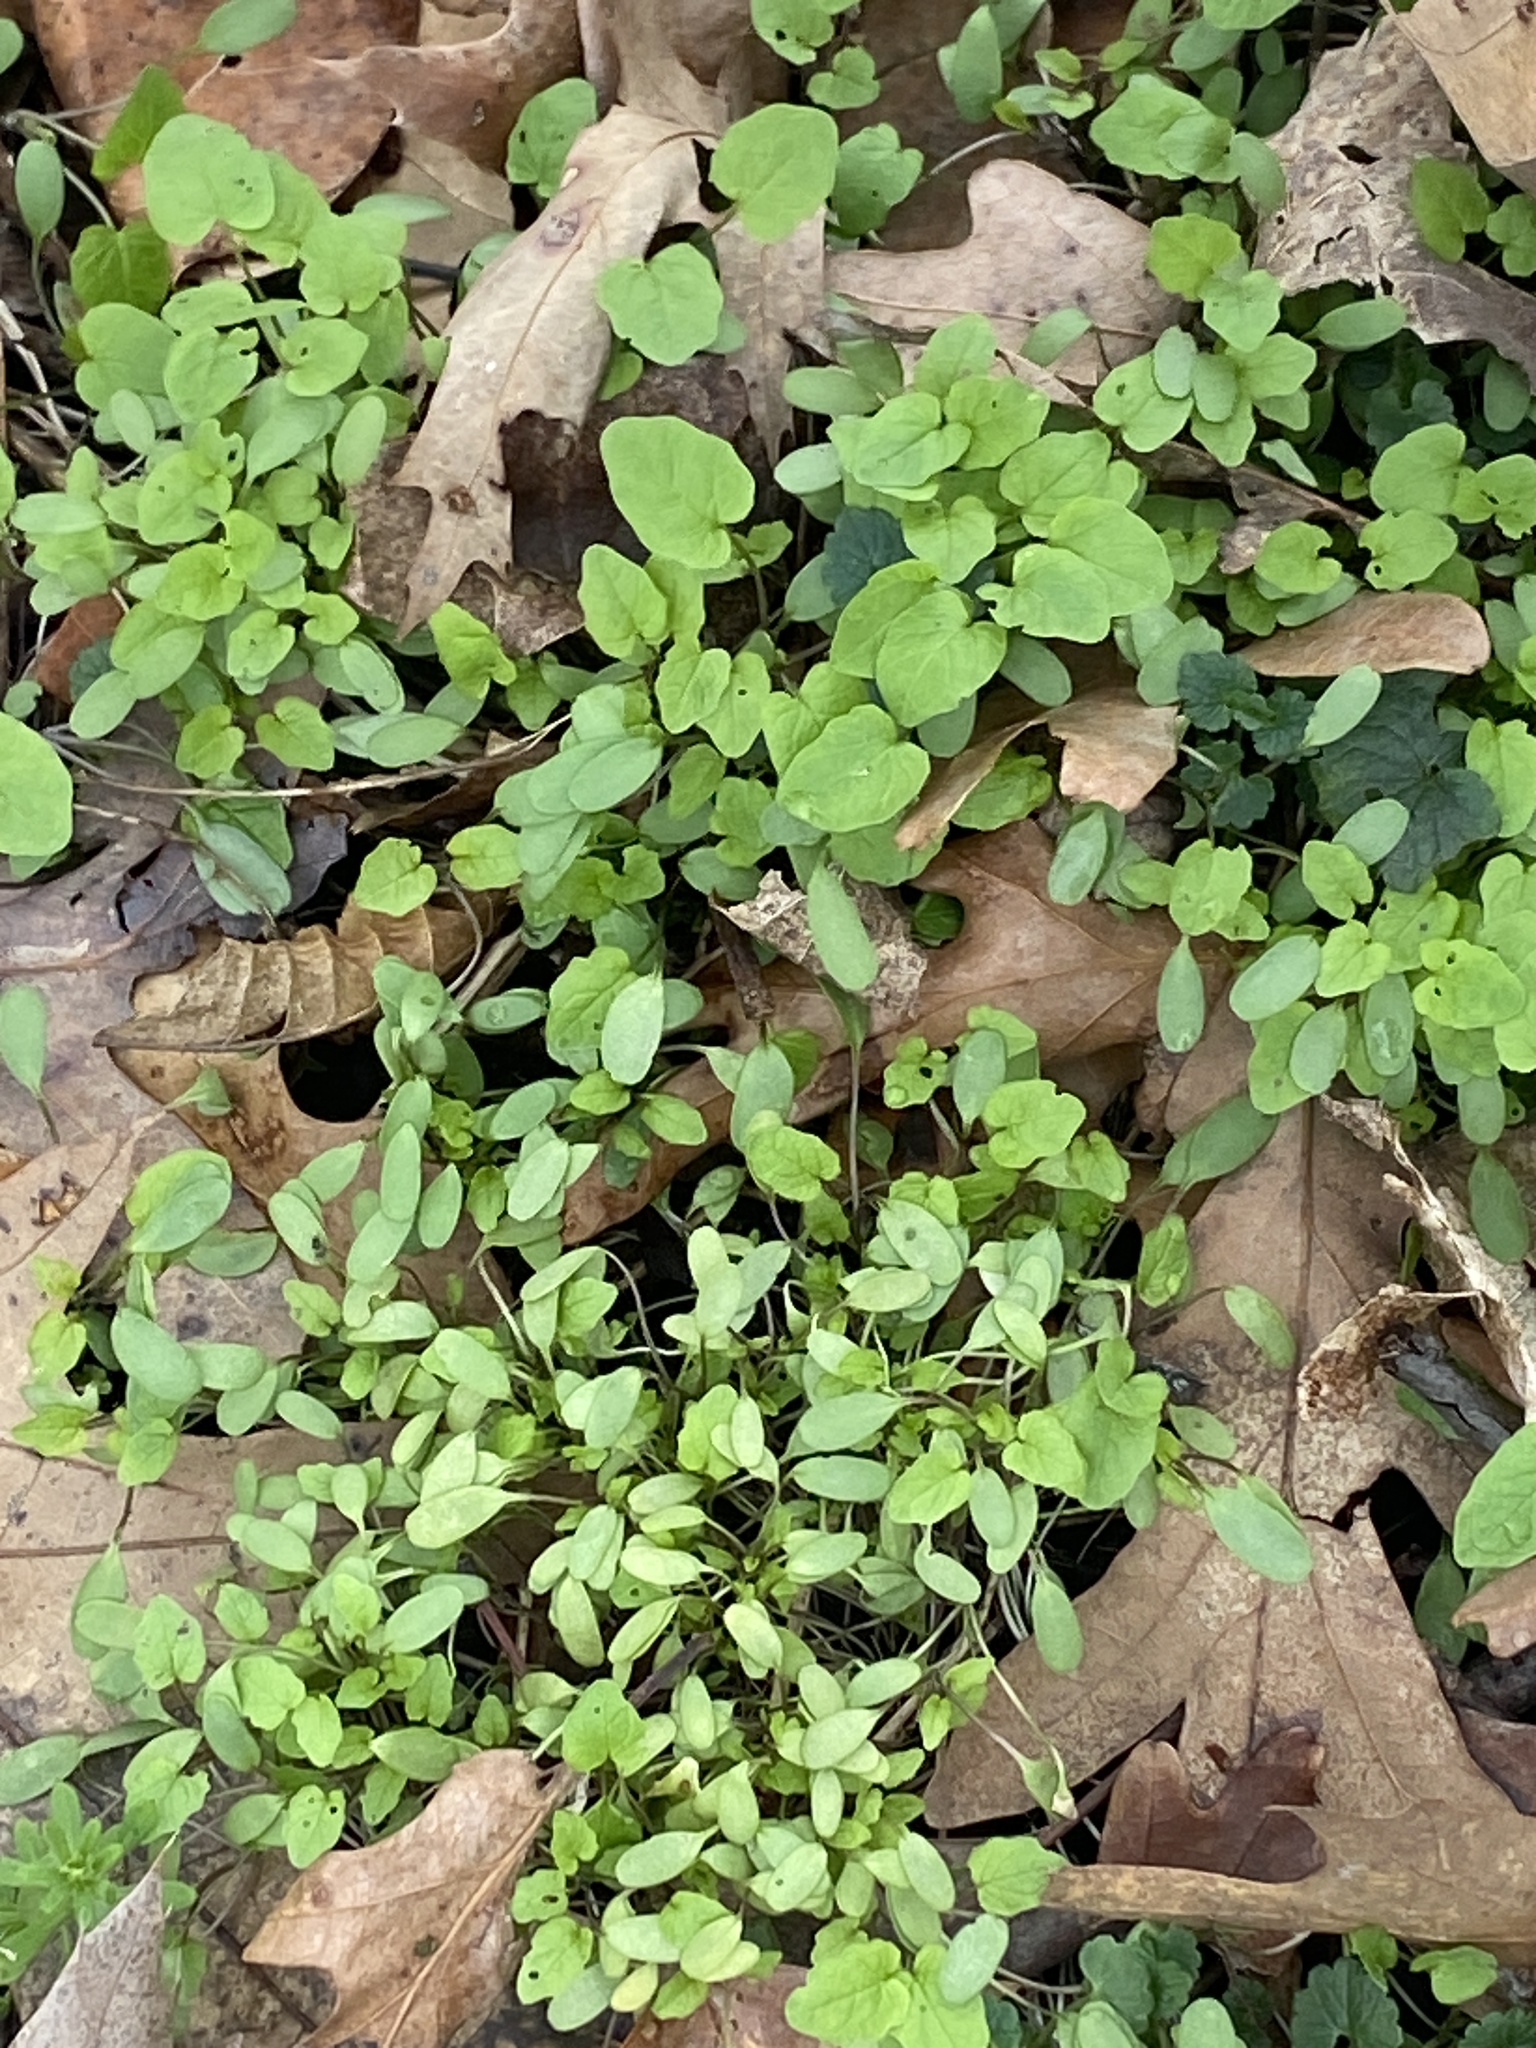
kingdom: Plantae
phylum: Tracheophyta
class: Magnoliopsida
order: Brassicales
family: Brassicaceae
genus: Alliaria
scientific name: Alliaria petiolata
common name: Garlic mustard
